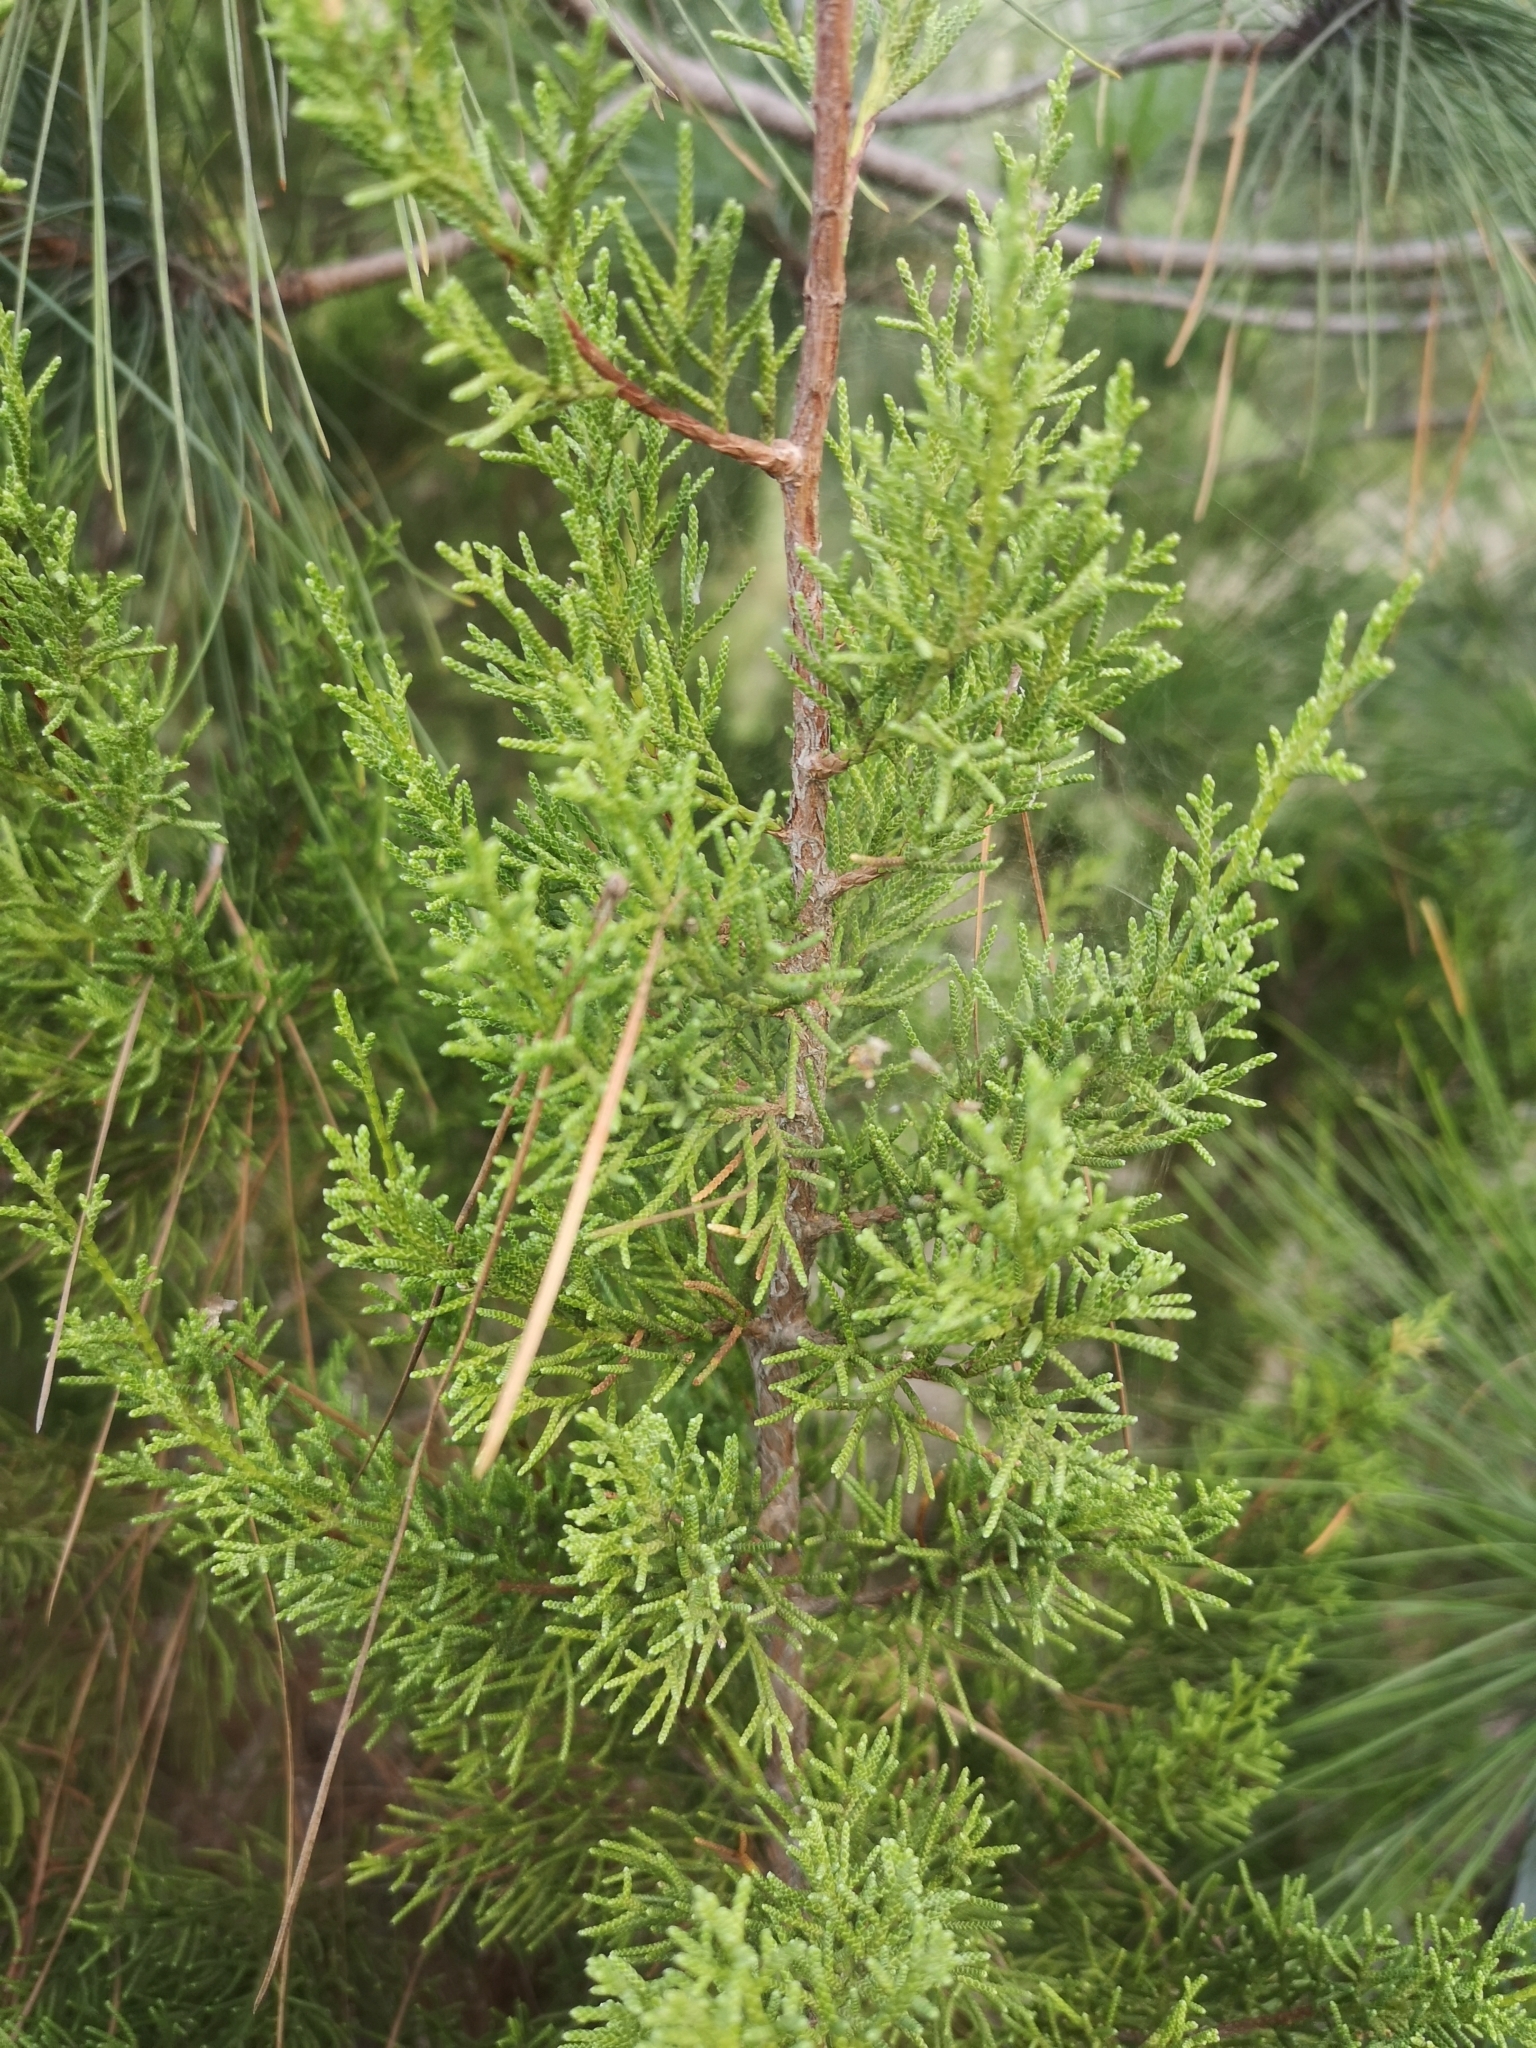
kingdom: Plantae
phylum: Tracheophyta
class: Pinopsida
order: Pinales
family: Cupressaceae
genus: Juniperus
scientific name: Juniperus canariensis
